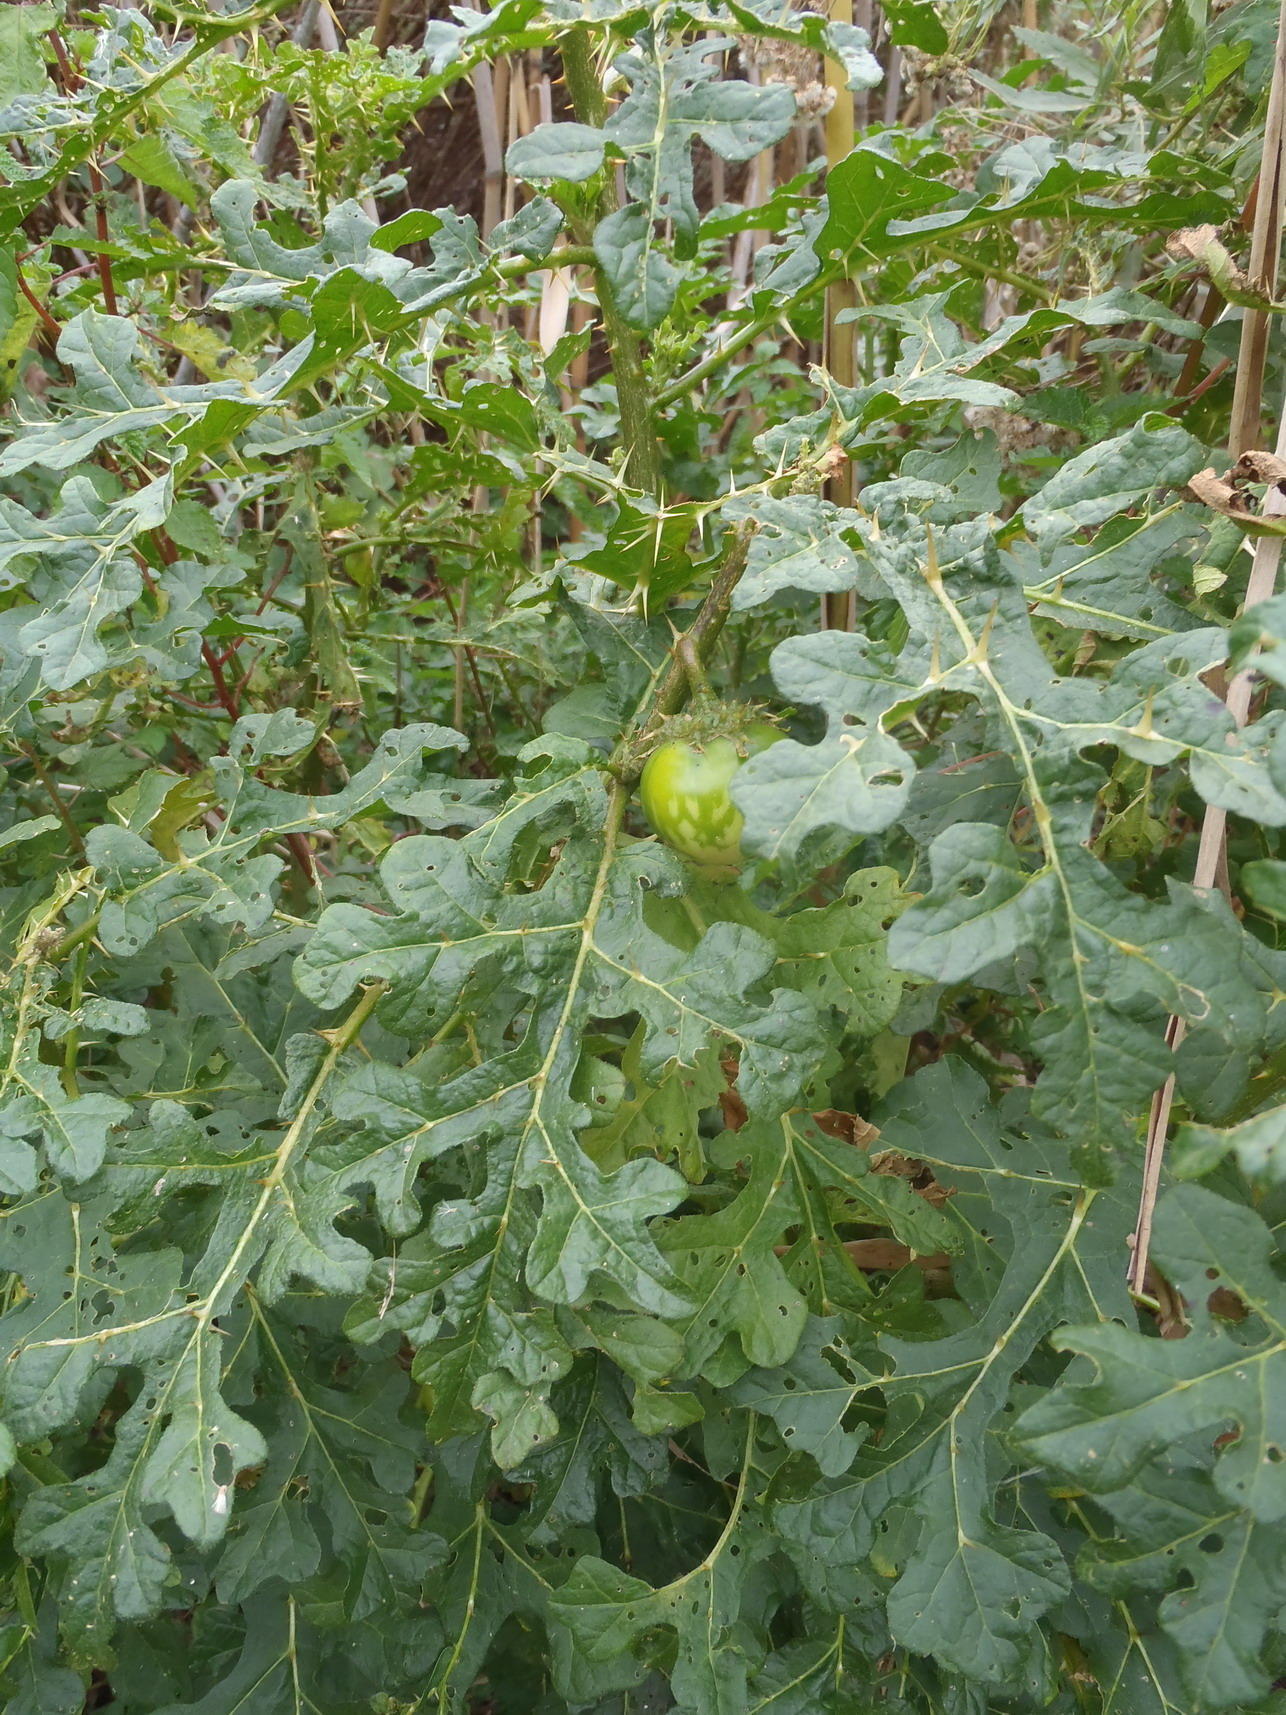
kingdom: Plantae
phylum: Tracheophyta
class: Magnoliopsida
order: Solanales
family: Solanaceae
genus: Solanum
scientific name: Solanum linnaeanum
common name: Nightshade
